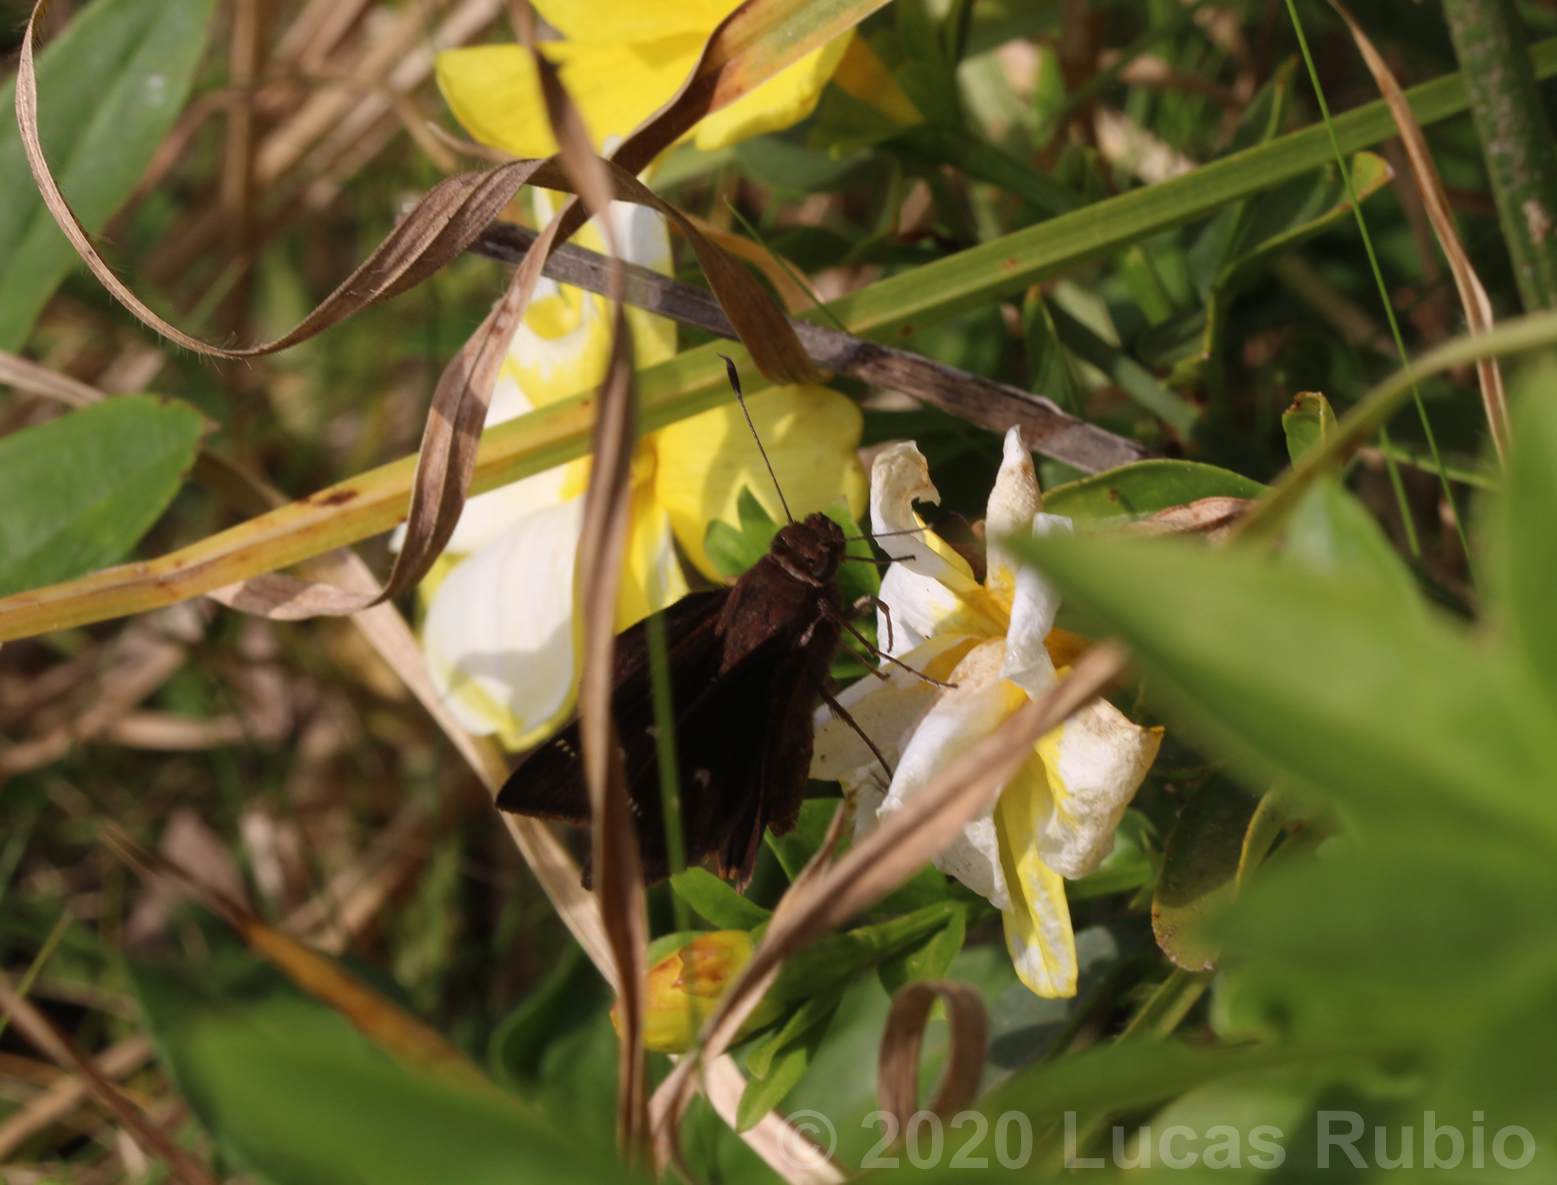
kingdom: Animalia
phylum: Arthropoda
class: Insecta
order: Lepidoptera
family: Hesperiidae
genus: Quinta
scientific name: Quinta cannae
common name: Canna skipper
